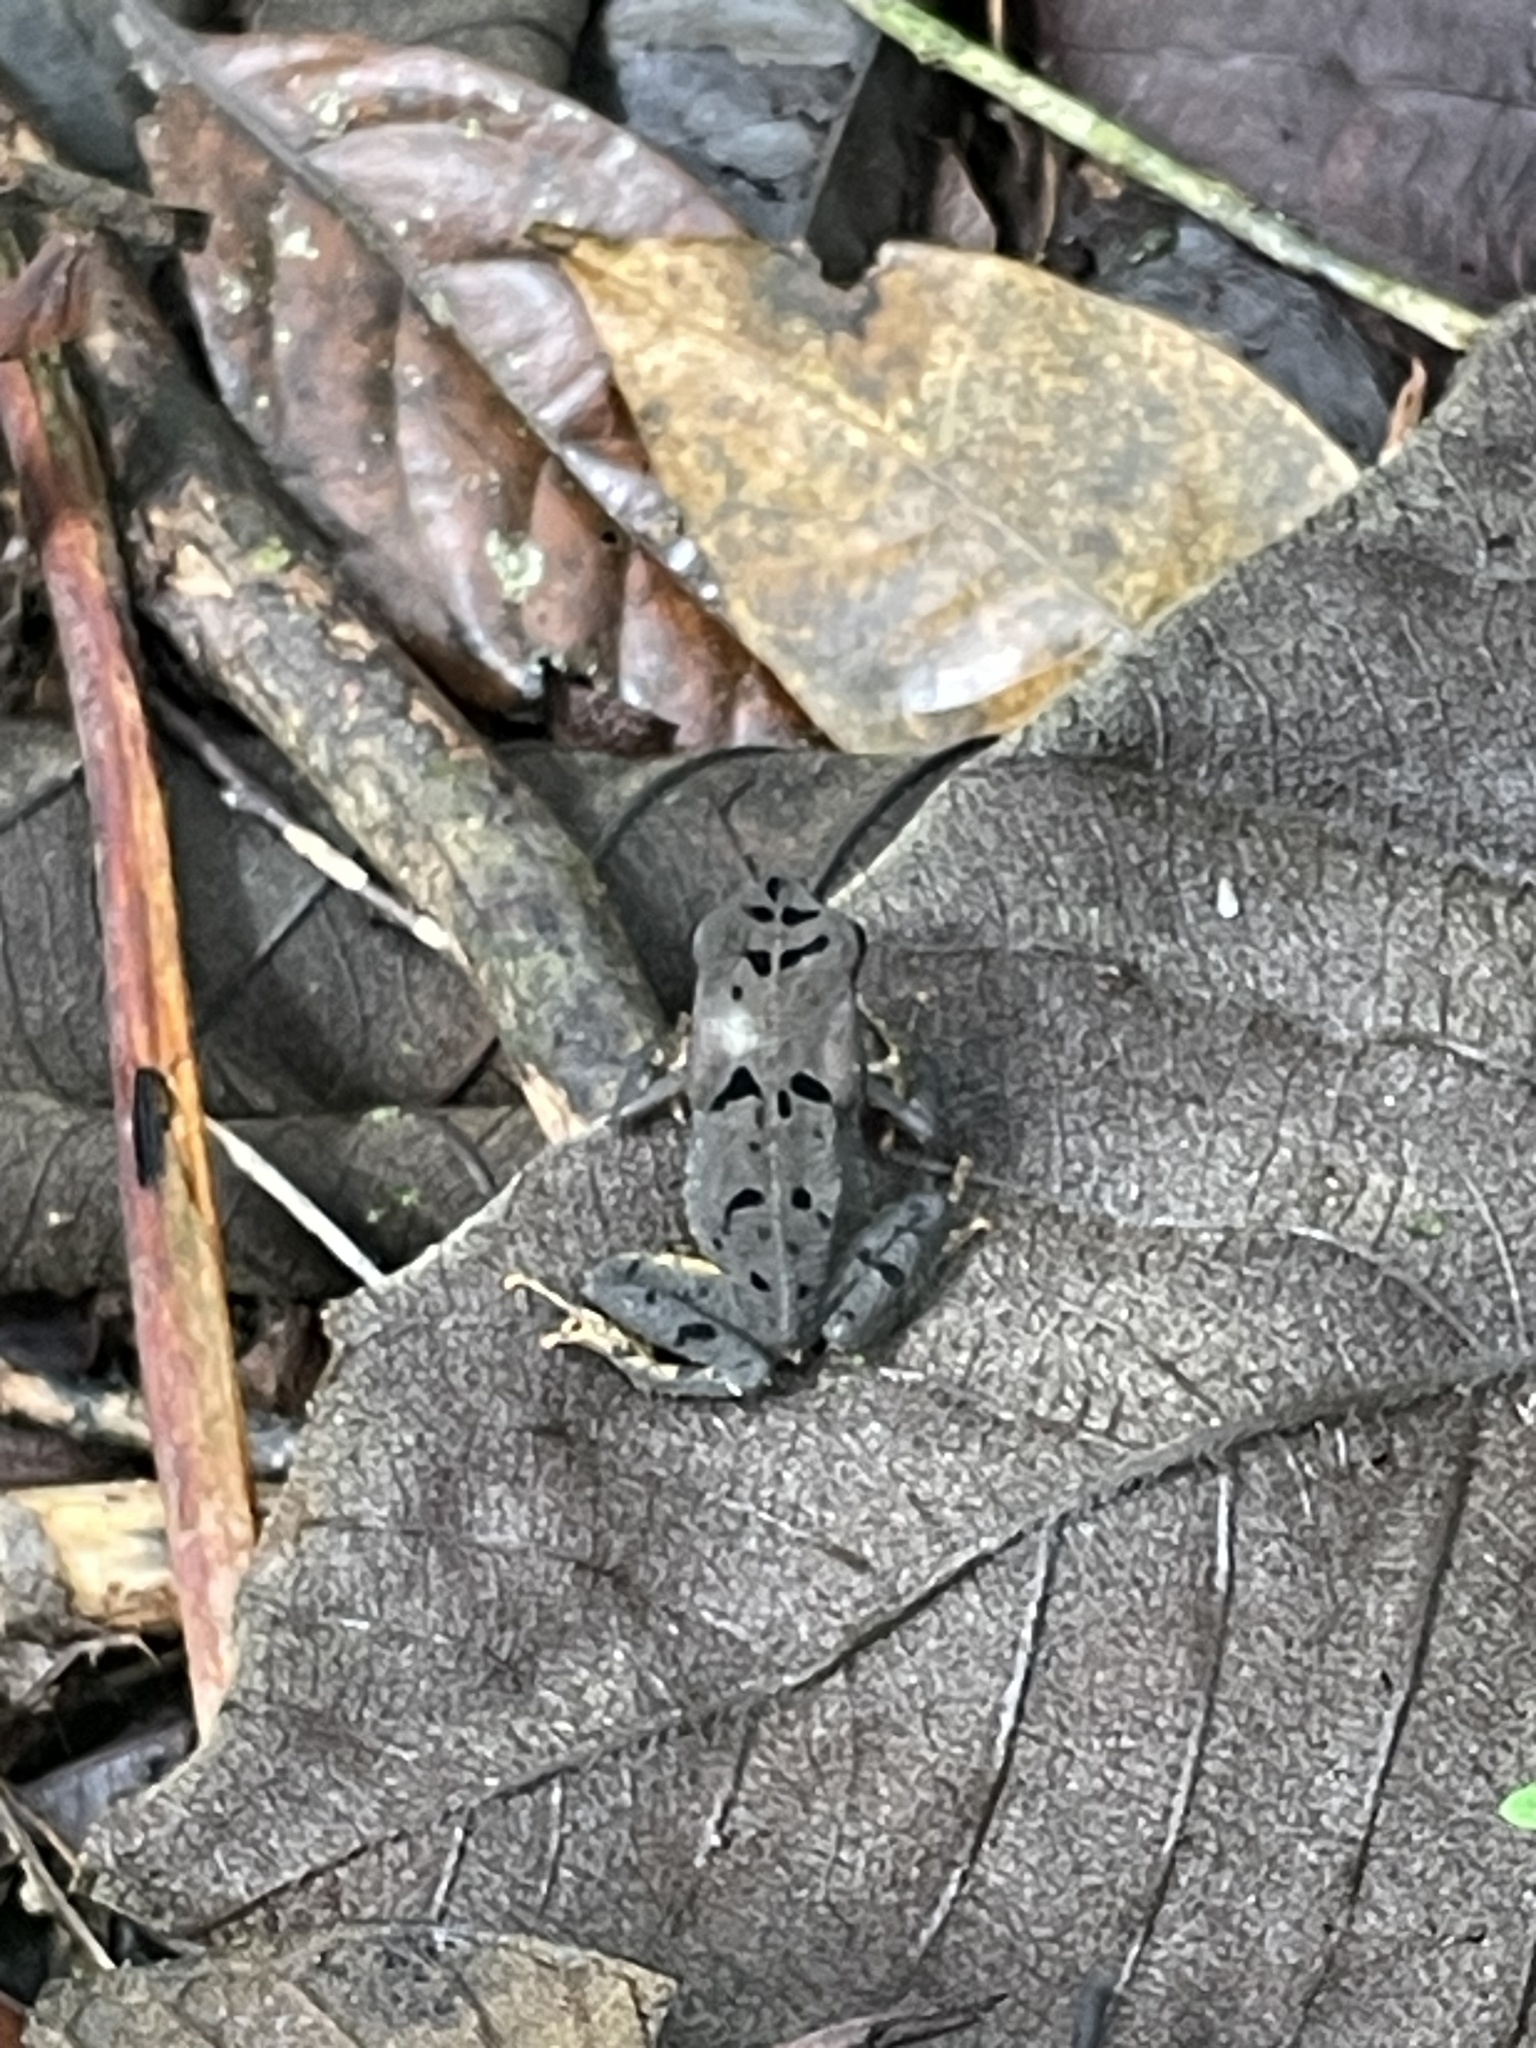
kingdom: Animalia
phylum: Chordata
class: Amphibia
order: Anura
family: Bufonidae
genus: Rhaebo
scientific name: Rhaebo haematiticus
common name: Truando toad
